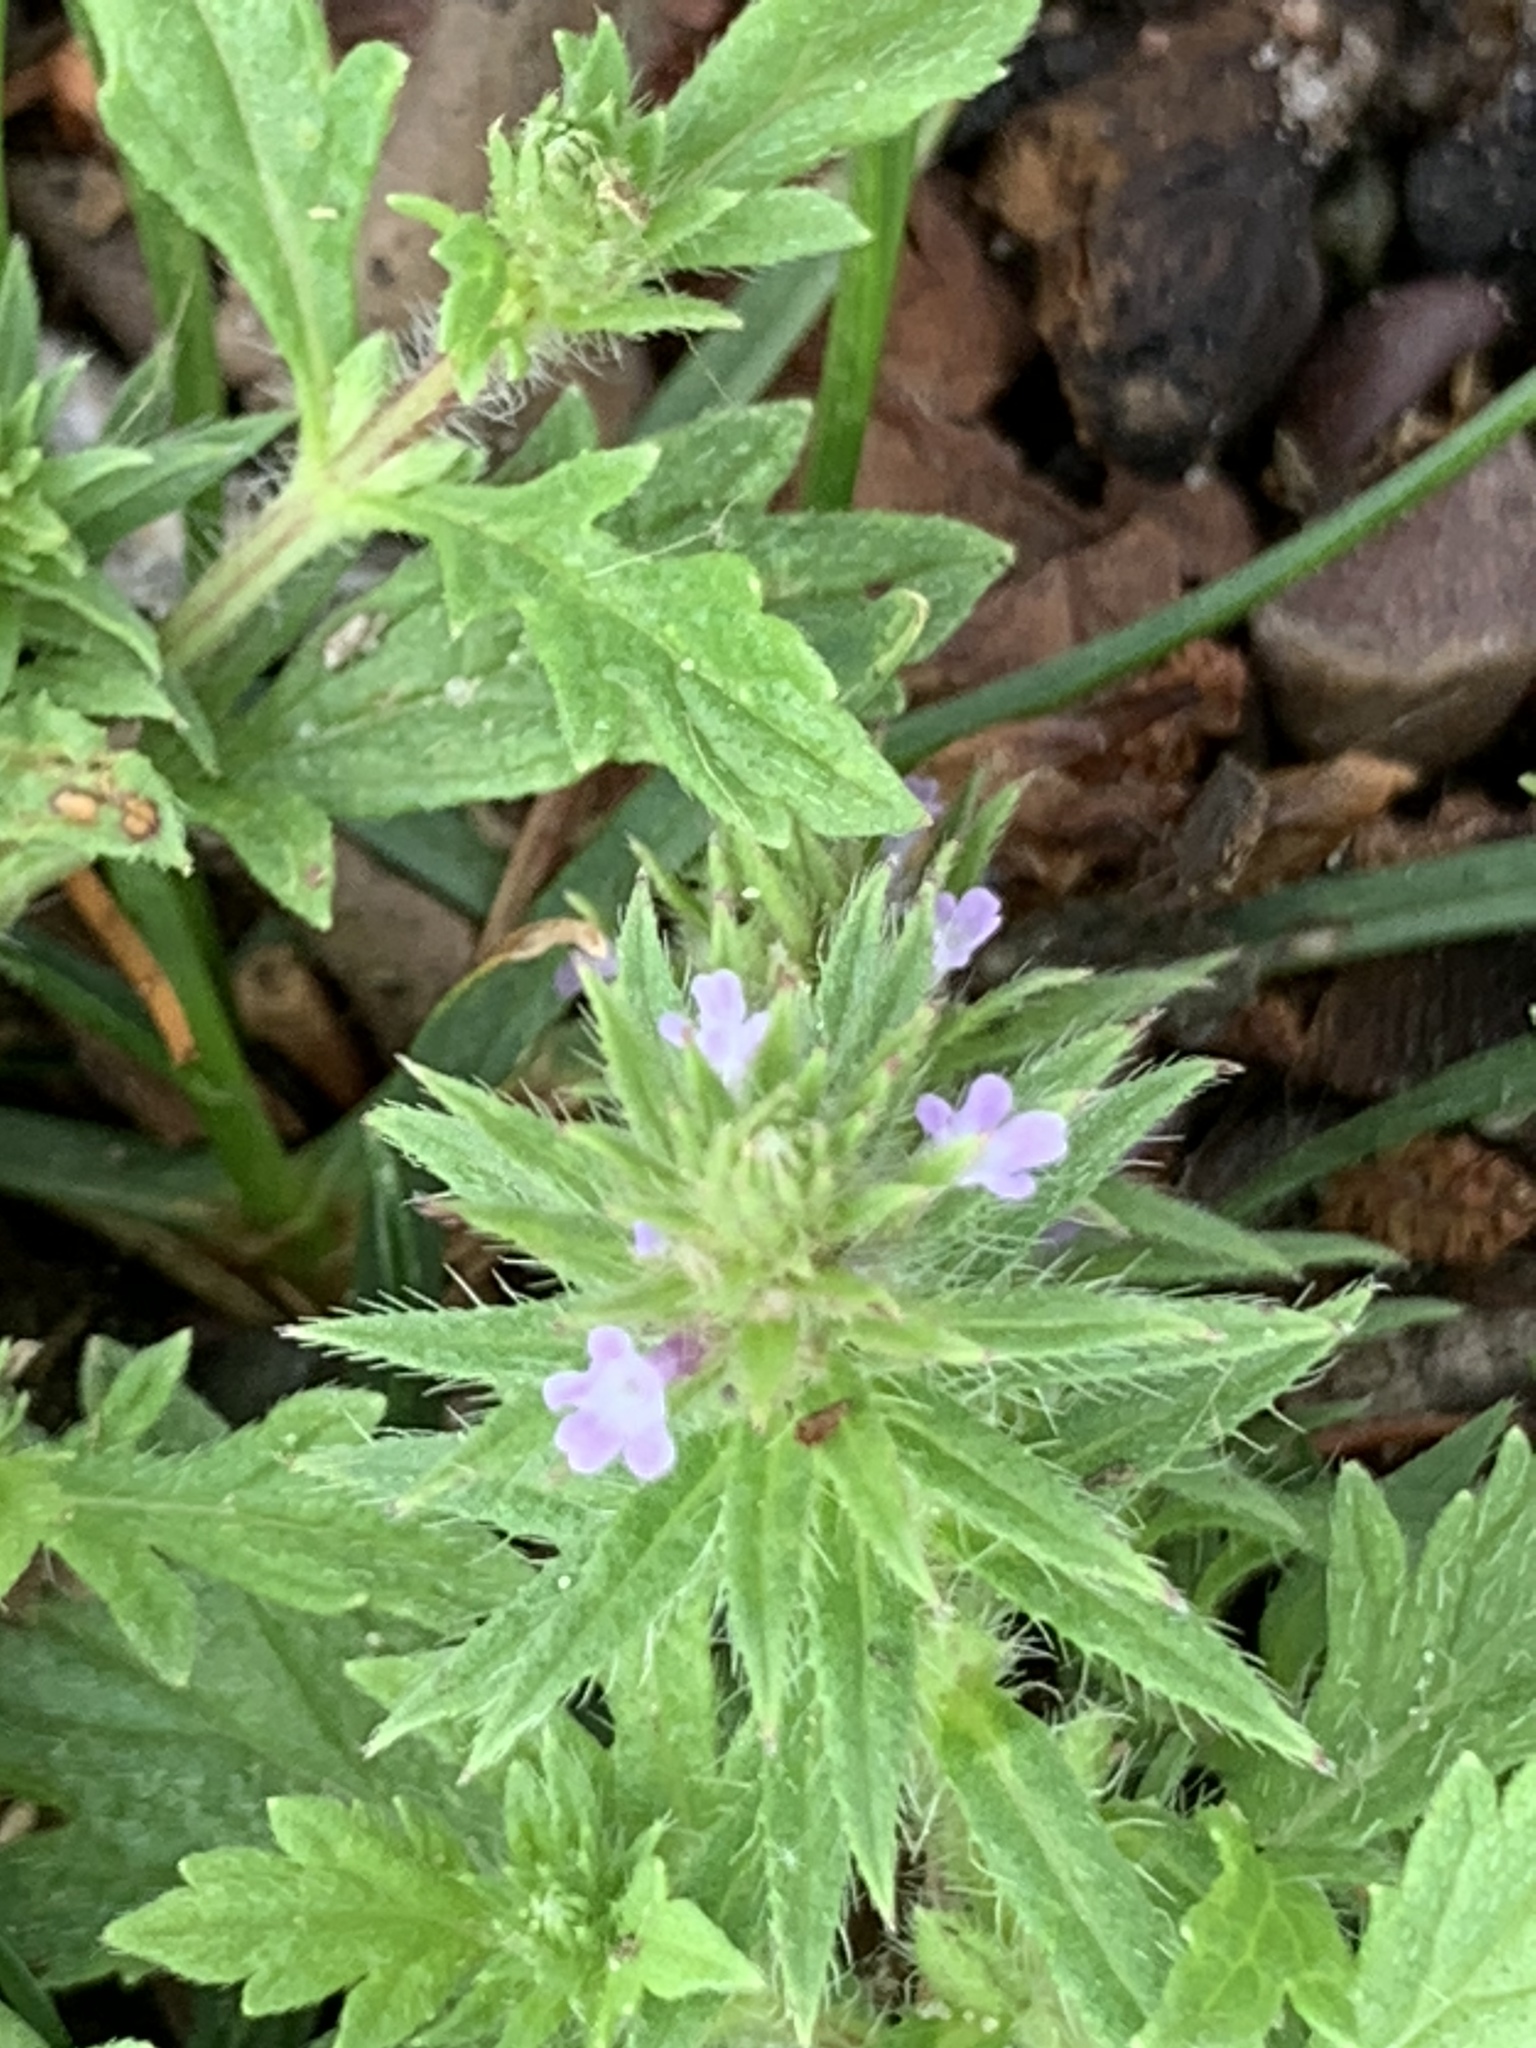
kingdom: Plantae
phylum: Tracheophyta
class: Magnoliopsida
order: Lamiales
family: Verbenaceae
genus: Verbena
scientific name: Verbena bracteata
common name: Bracted vervain
